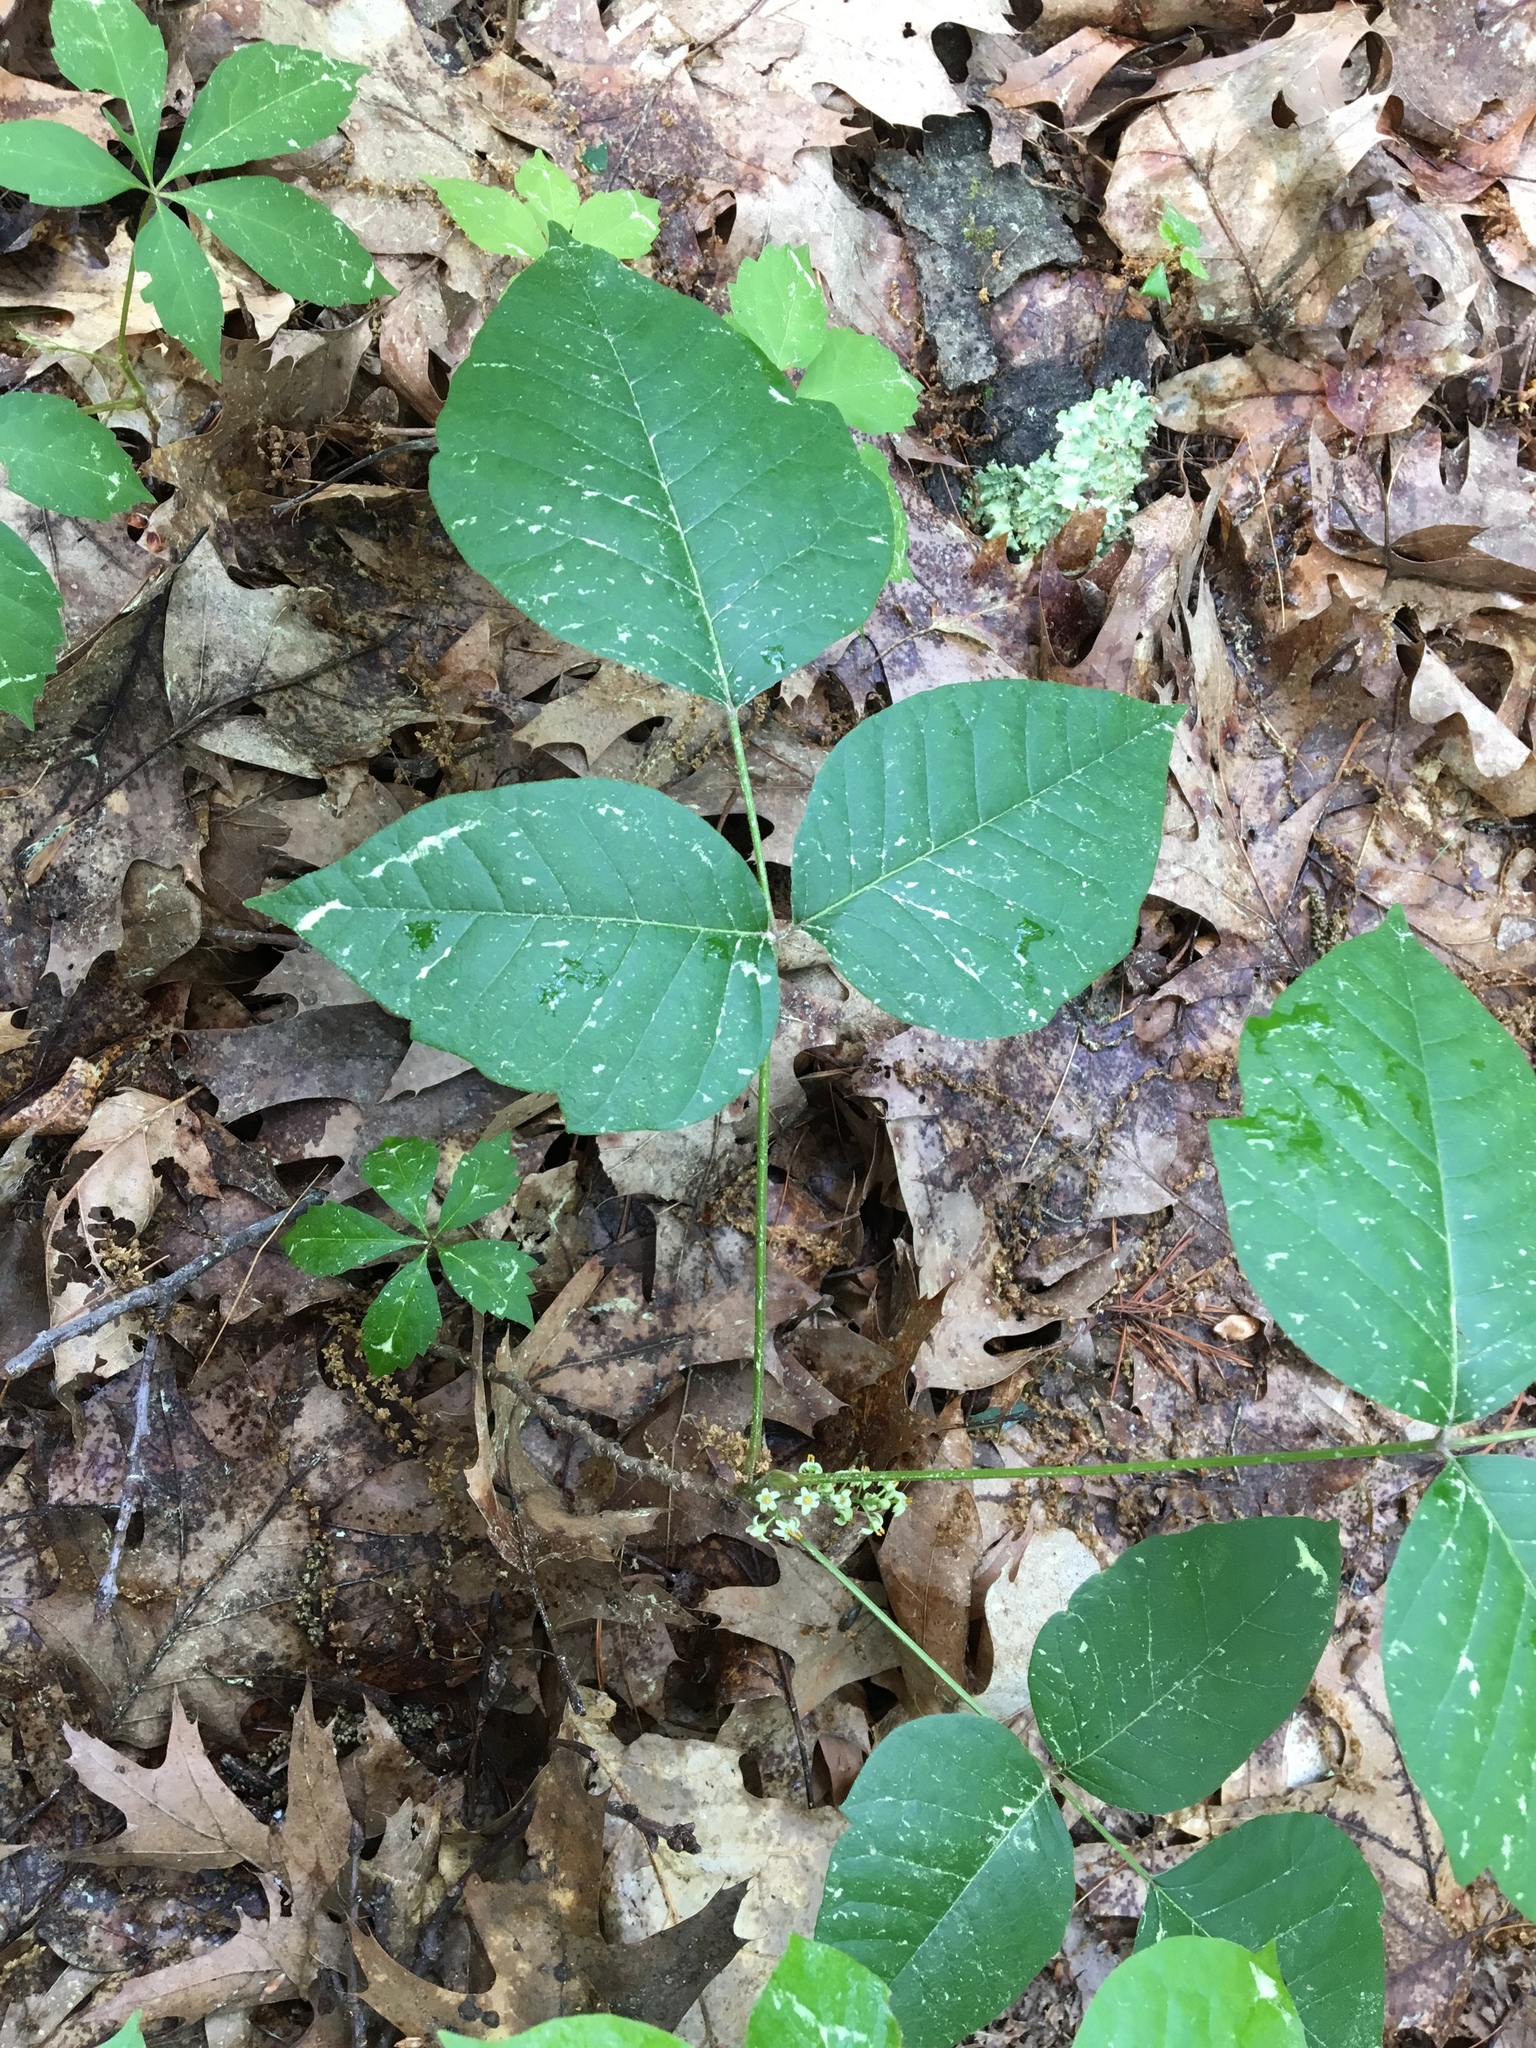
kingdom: Plantae
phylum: Tracheophyta
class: Magnoliopsida
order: Sapindales
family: Anacardiaceae
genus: Toxicodendron
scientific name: Toxicodendron radicans
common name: Poison ivy
